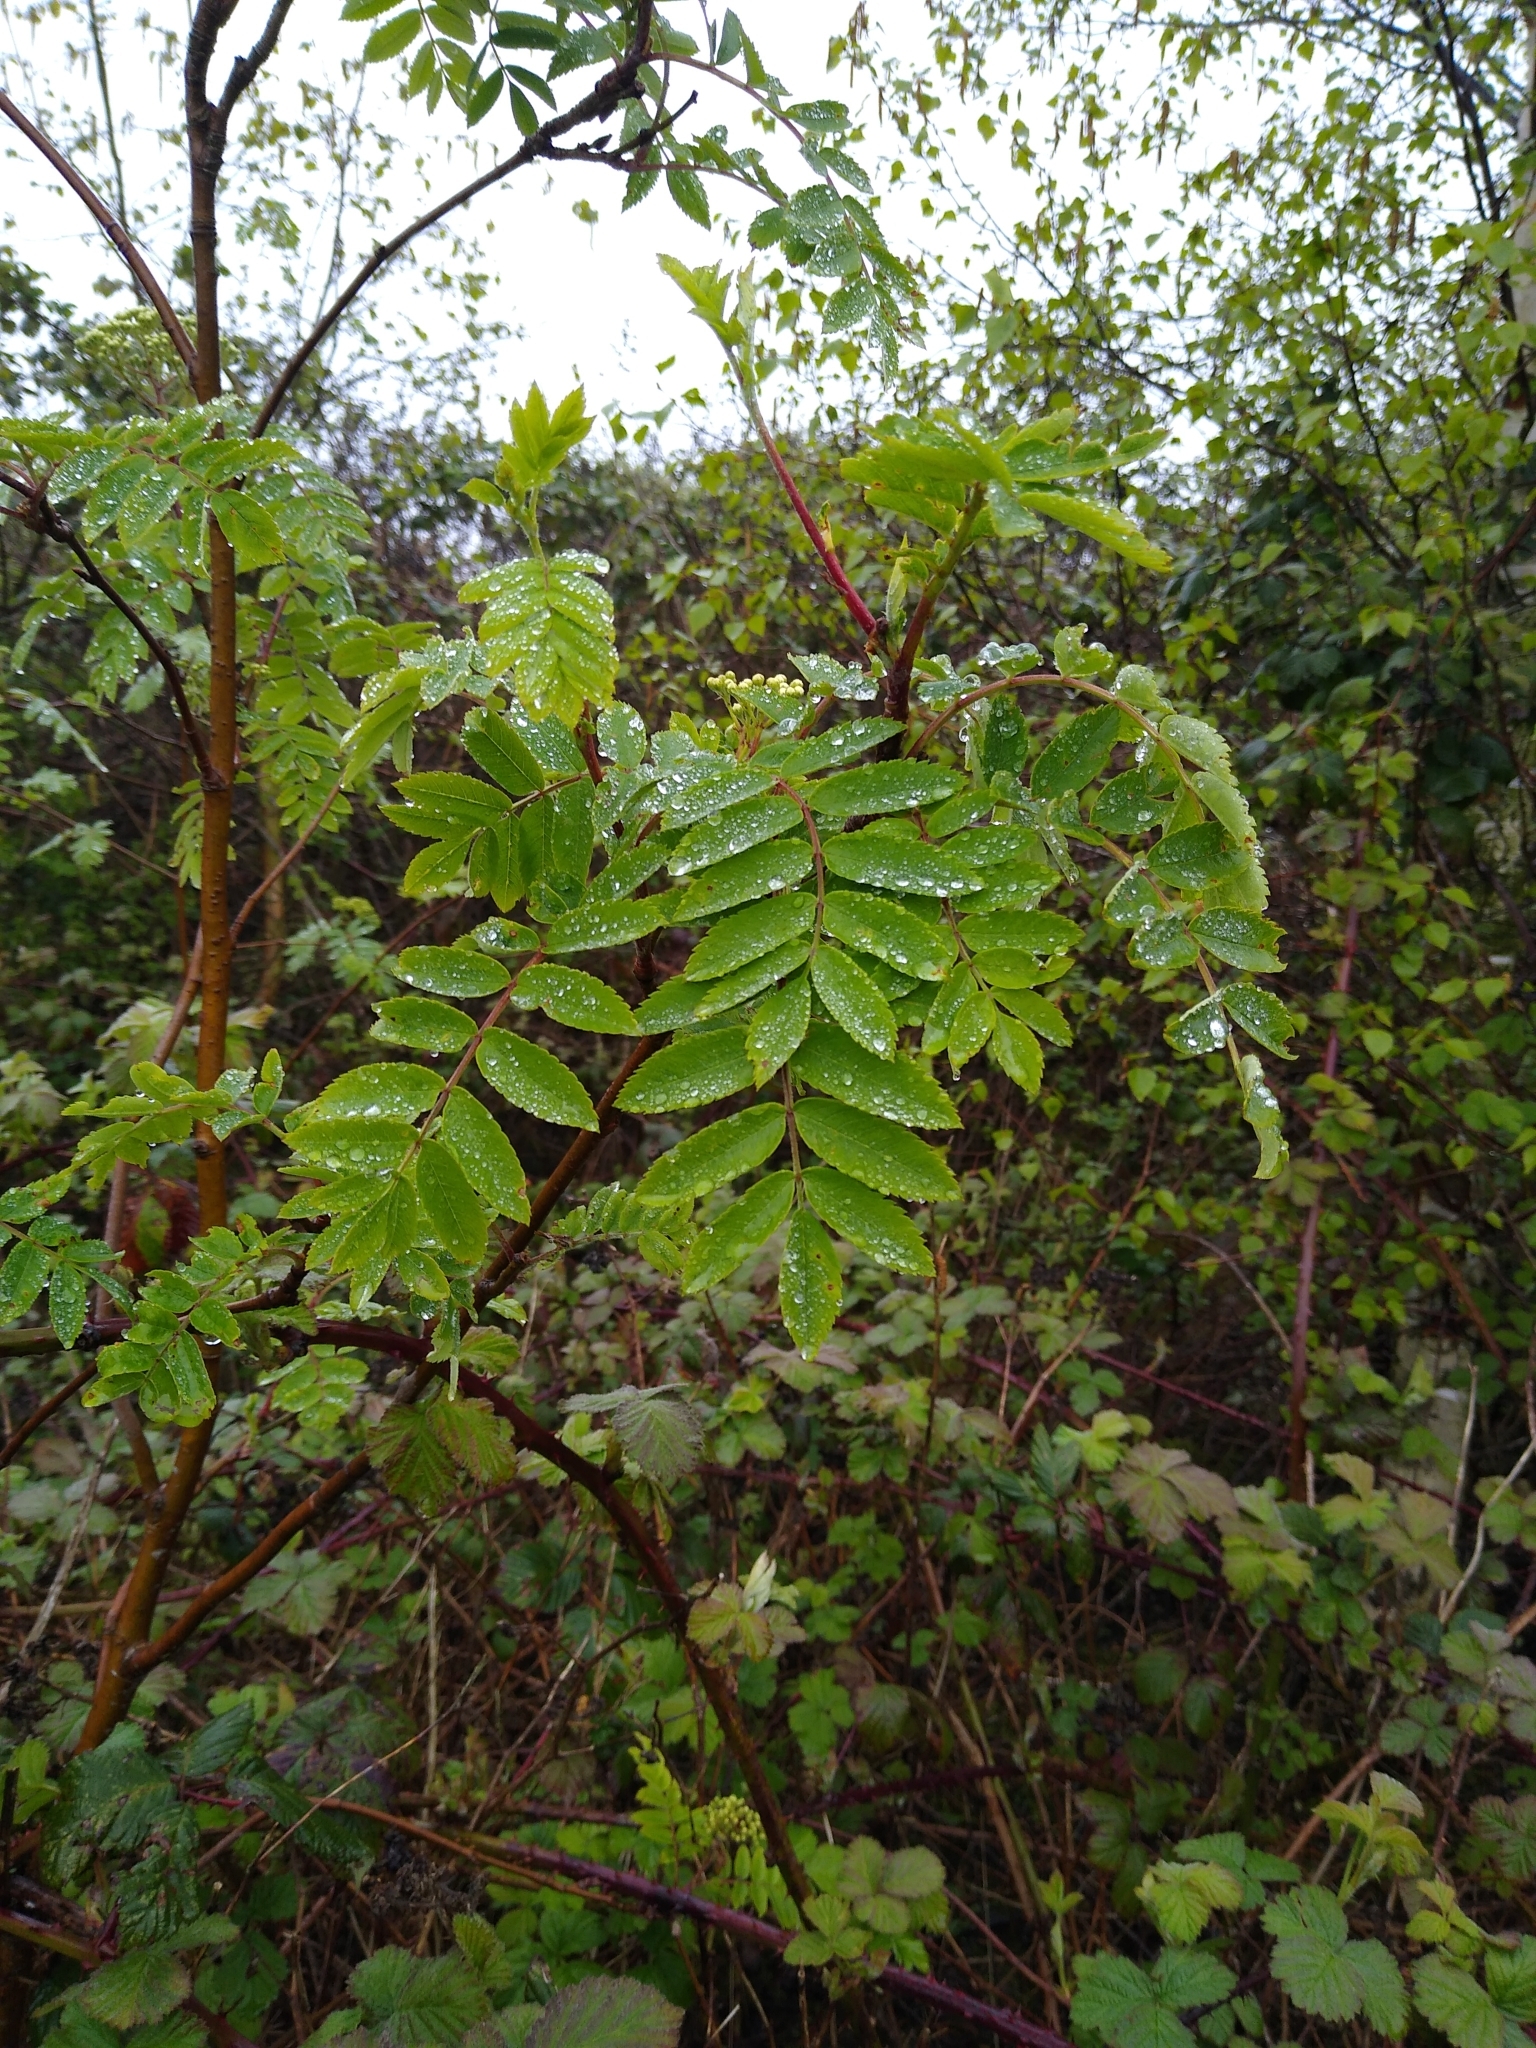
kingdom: Plantae
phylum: Tracheophyta
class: Magnoliopsida
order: Rosales
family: Rosaceae
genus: Sorbus
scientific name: Sorbus aucuparia
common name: Rowan
